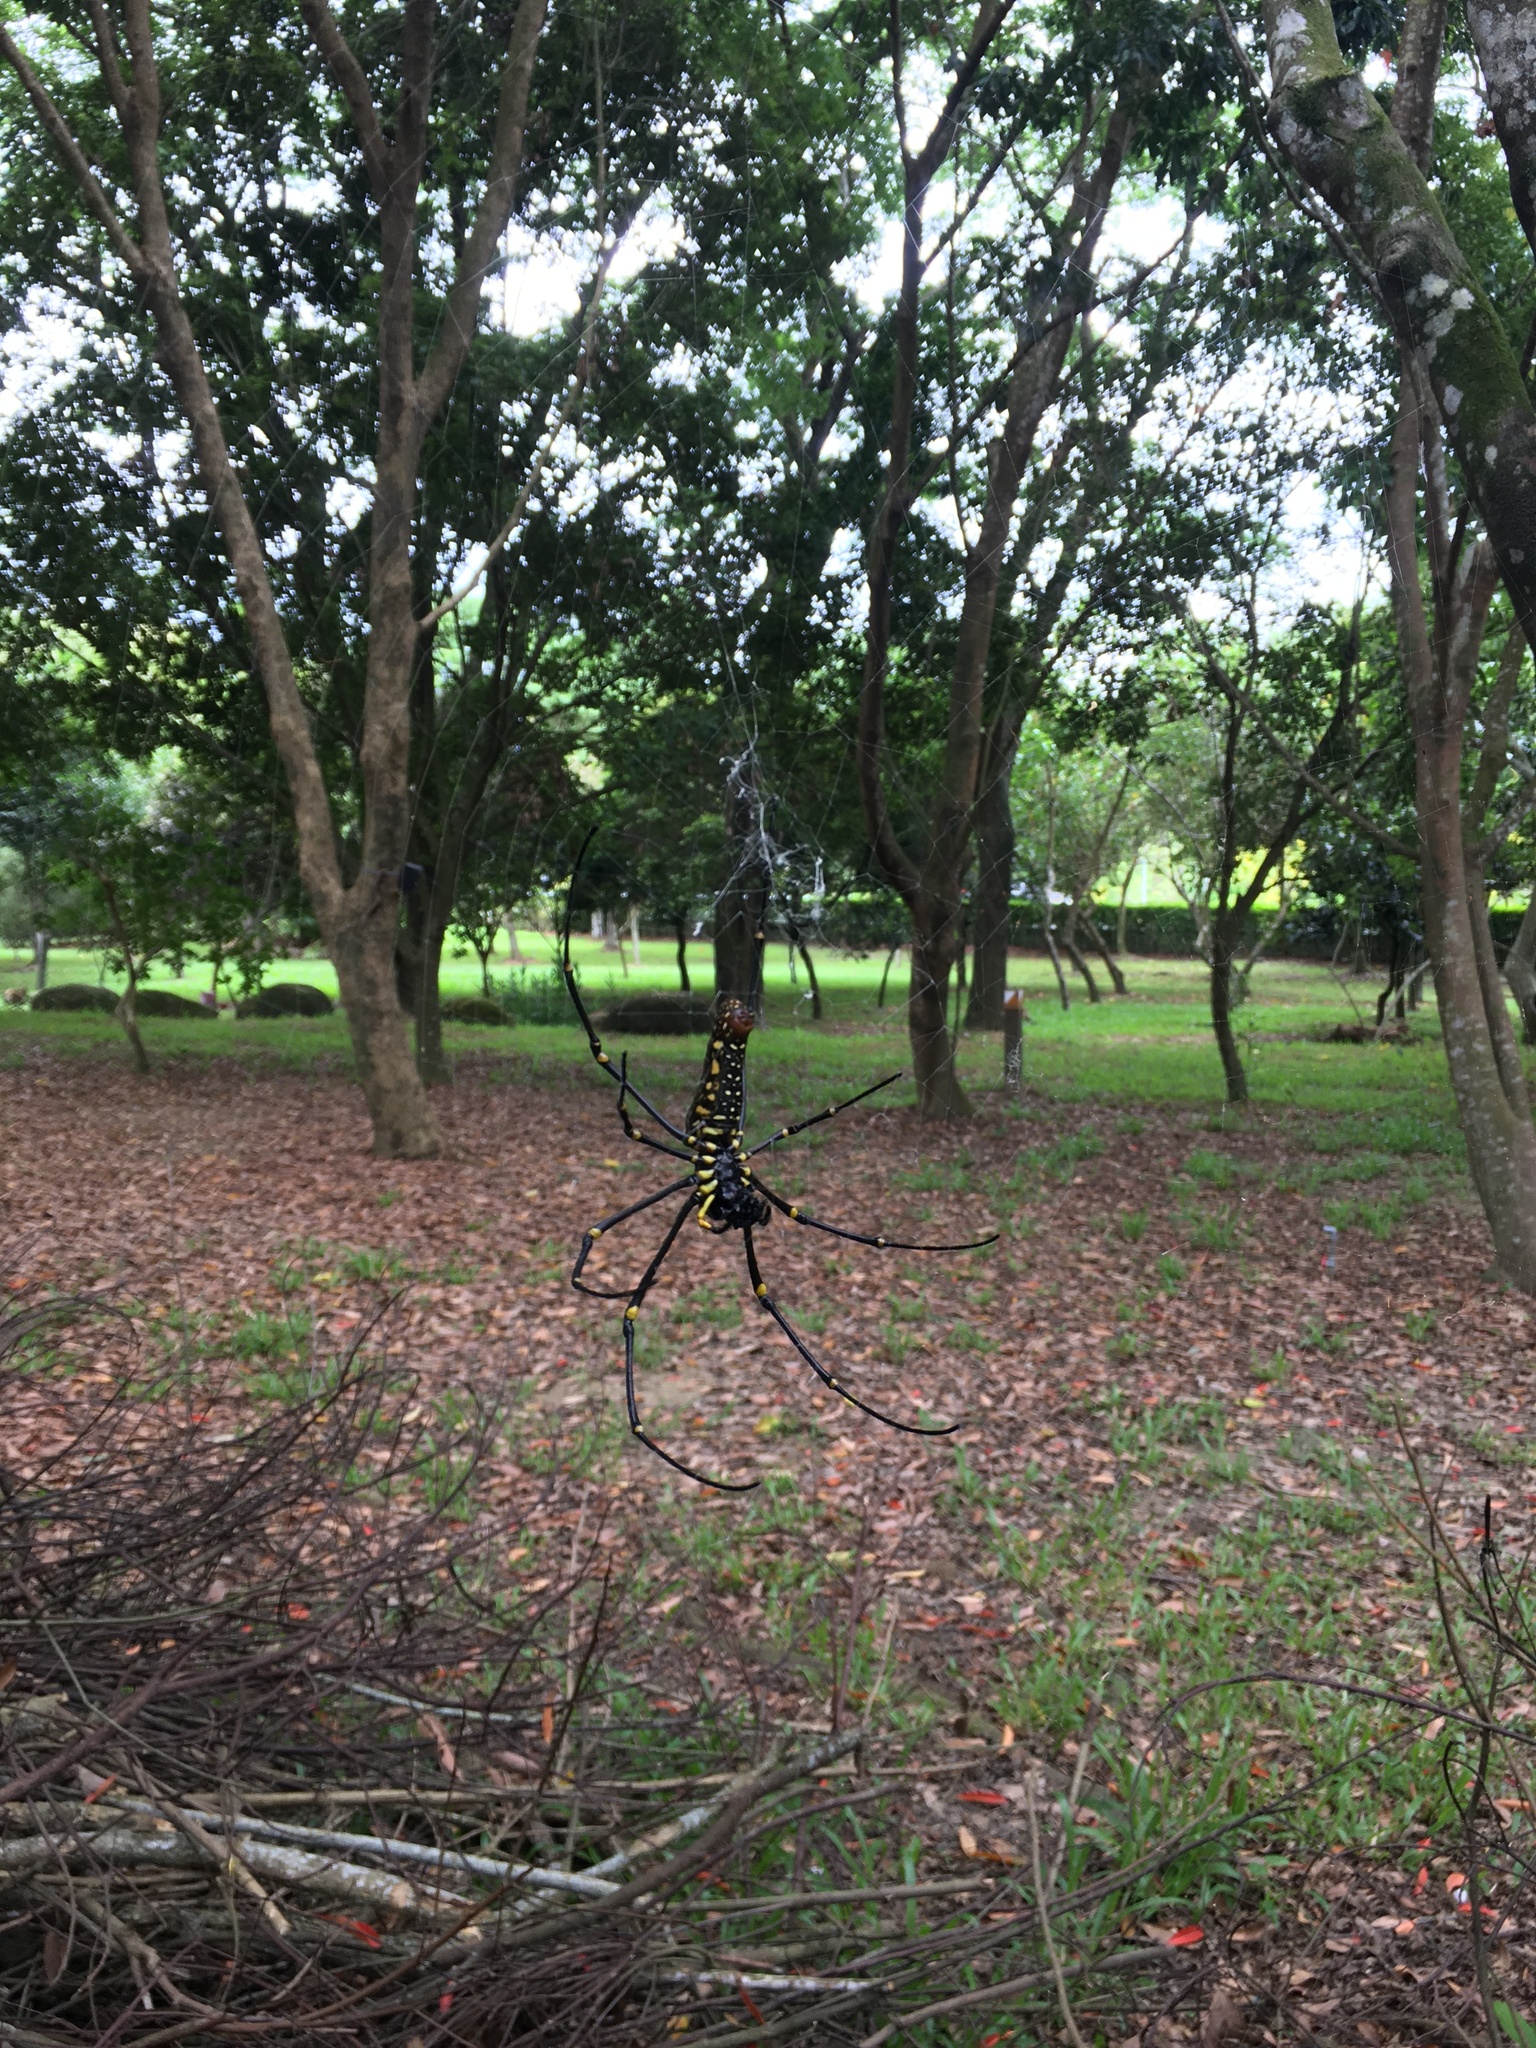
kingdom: Animalia
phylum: Arthropoda
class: Arachnida
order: Araneae
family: Araneidae
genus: Nephila
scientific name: Nephila pilipes
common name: Giant golden orb weaver
